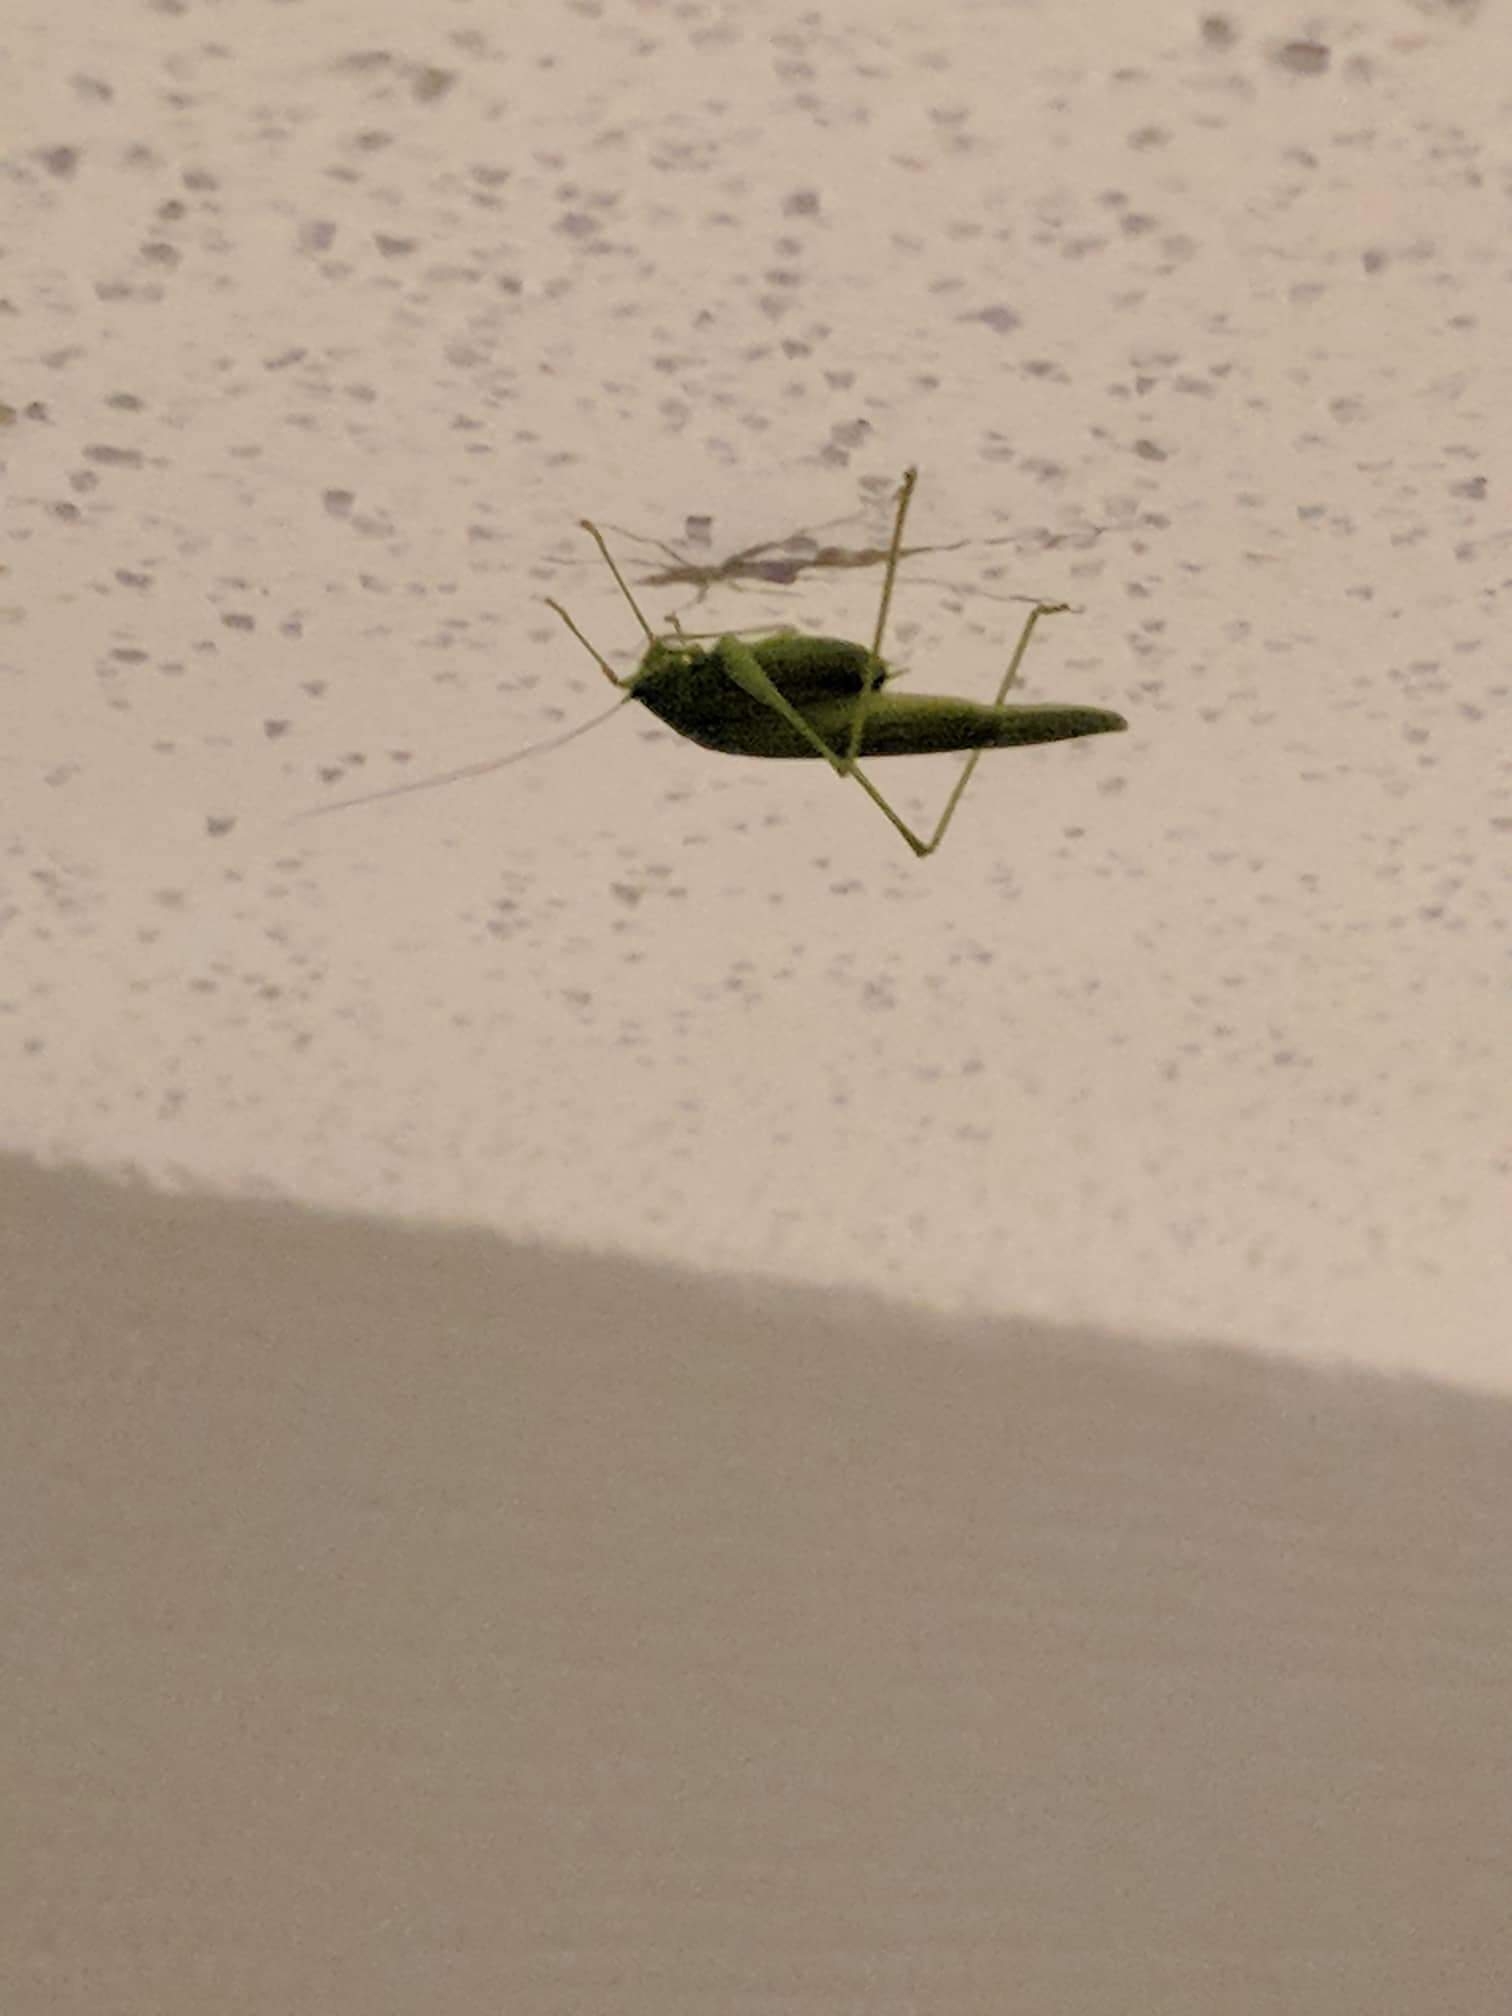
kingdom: Animalia
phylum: Arthropoda
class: Insecta
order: Orthoptera
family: Tettigoniidae
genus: Phaneroptera
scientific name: Phaneroptera nana
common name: Southern sickle bush-cricket
